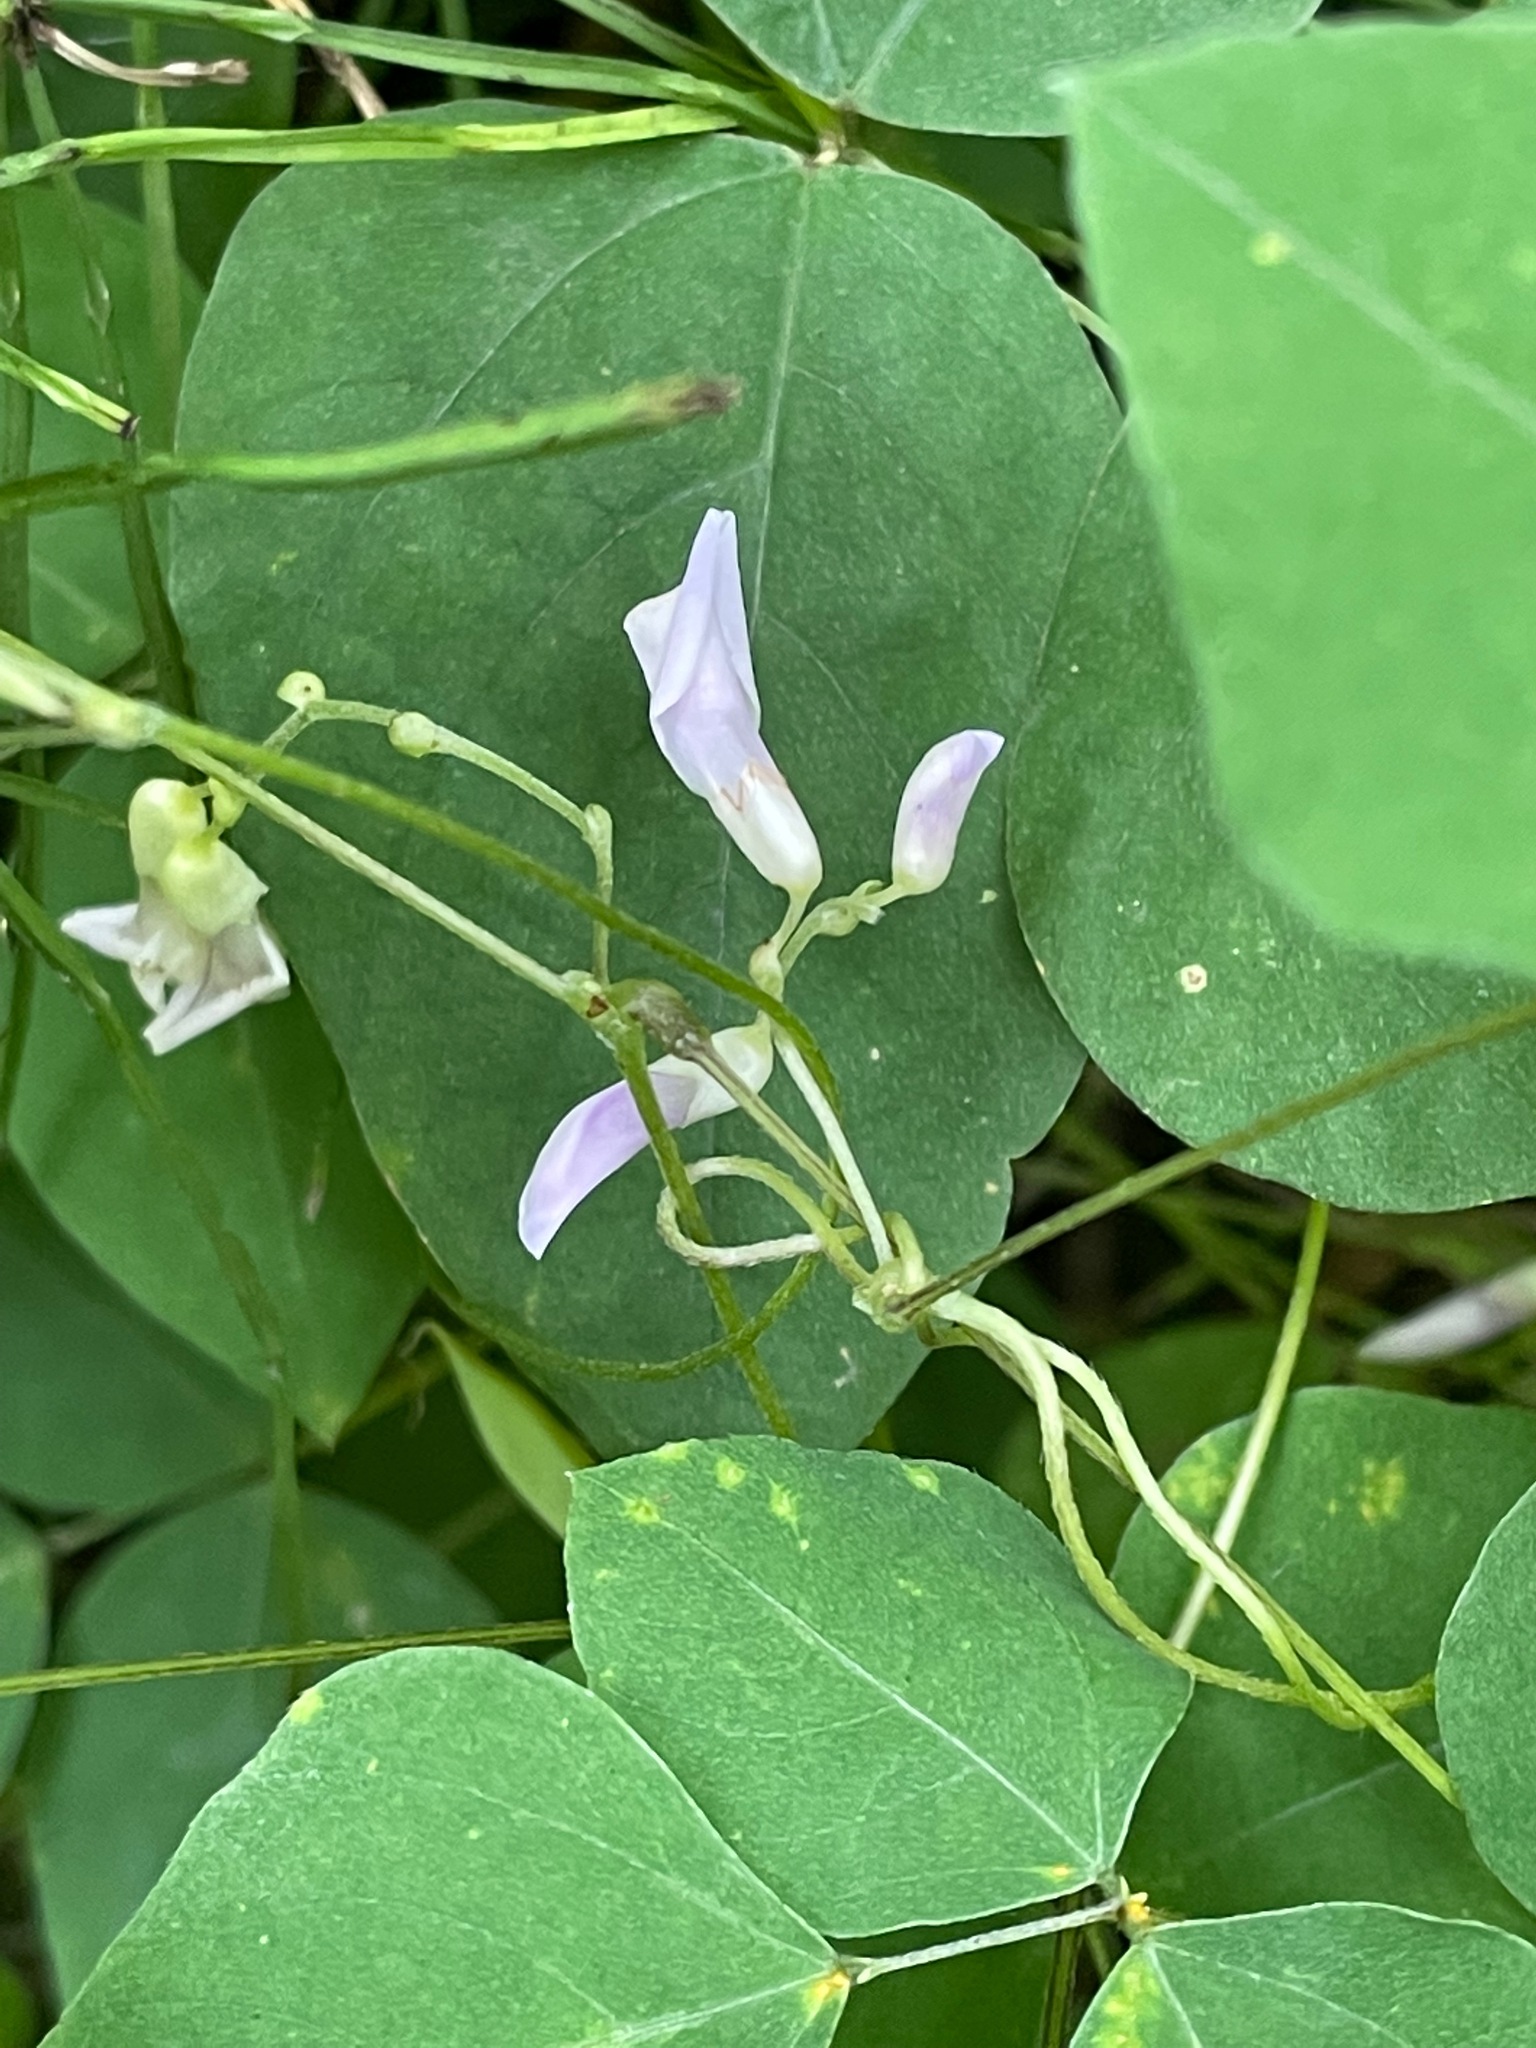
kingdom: Plantae
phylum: Tracheophyta
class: Magnoliopsida
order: Fabales
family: Fabaceae
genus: Amphicarpaea
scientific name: Amphicarpaea bracteata
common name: American hog peanut
